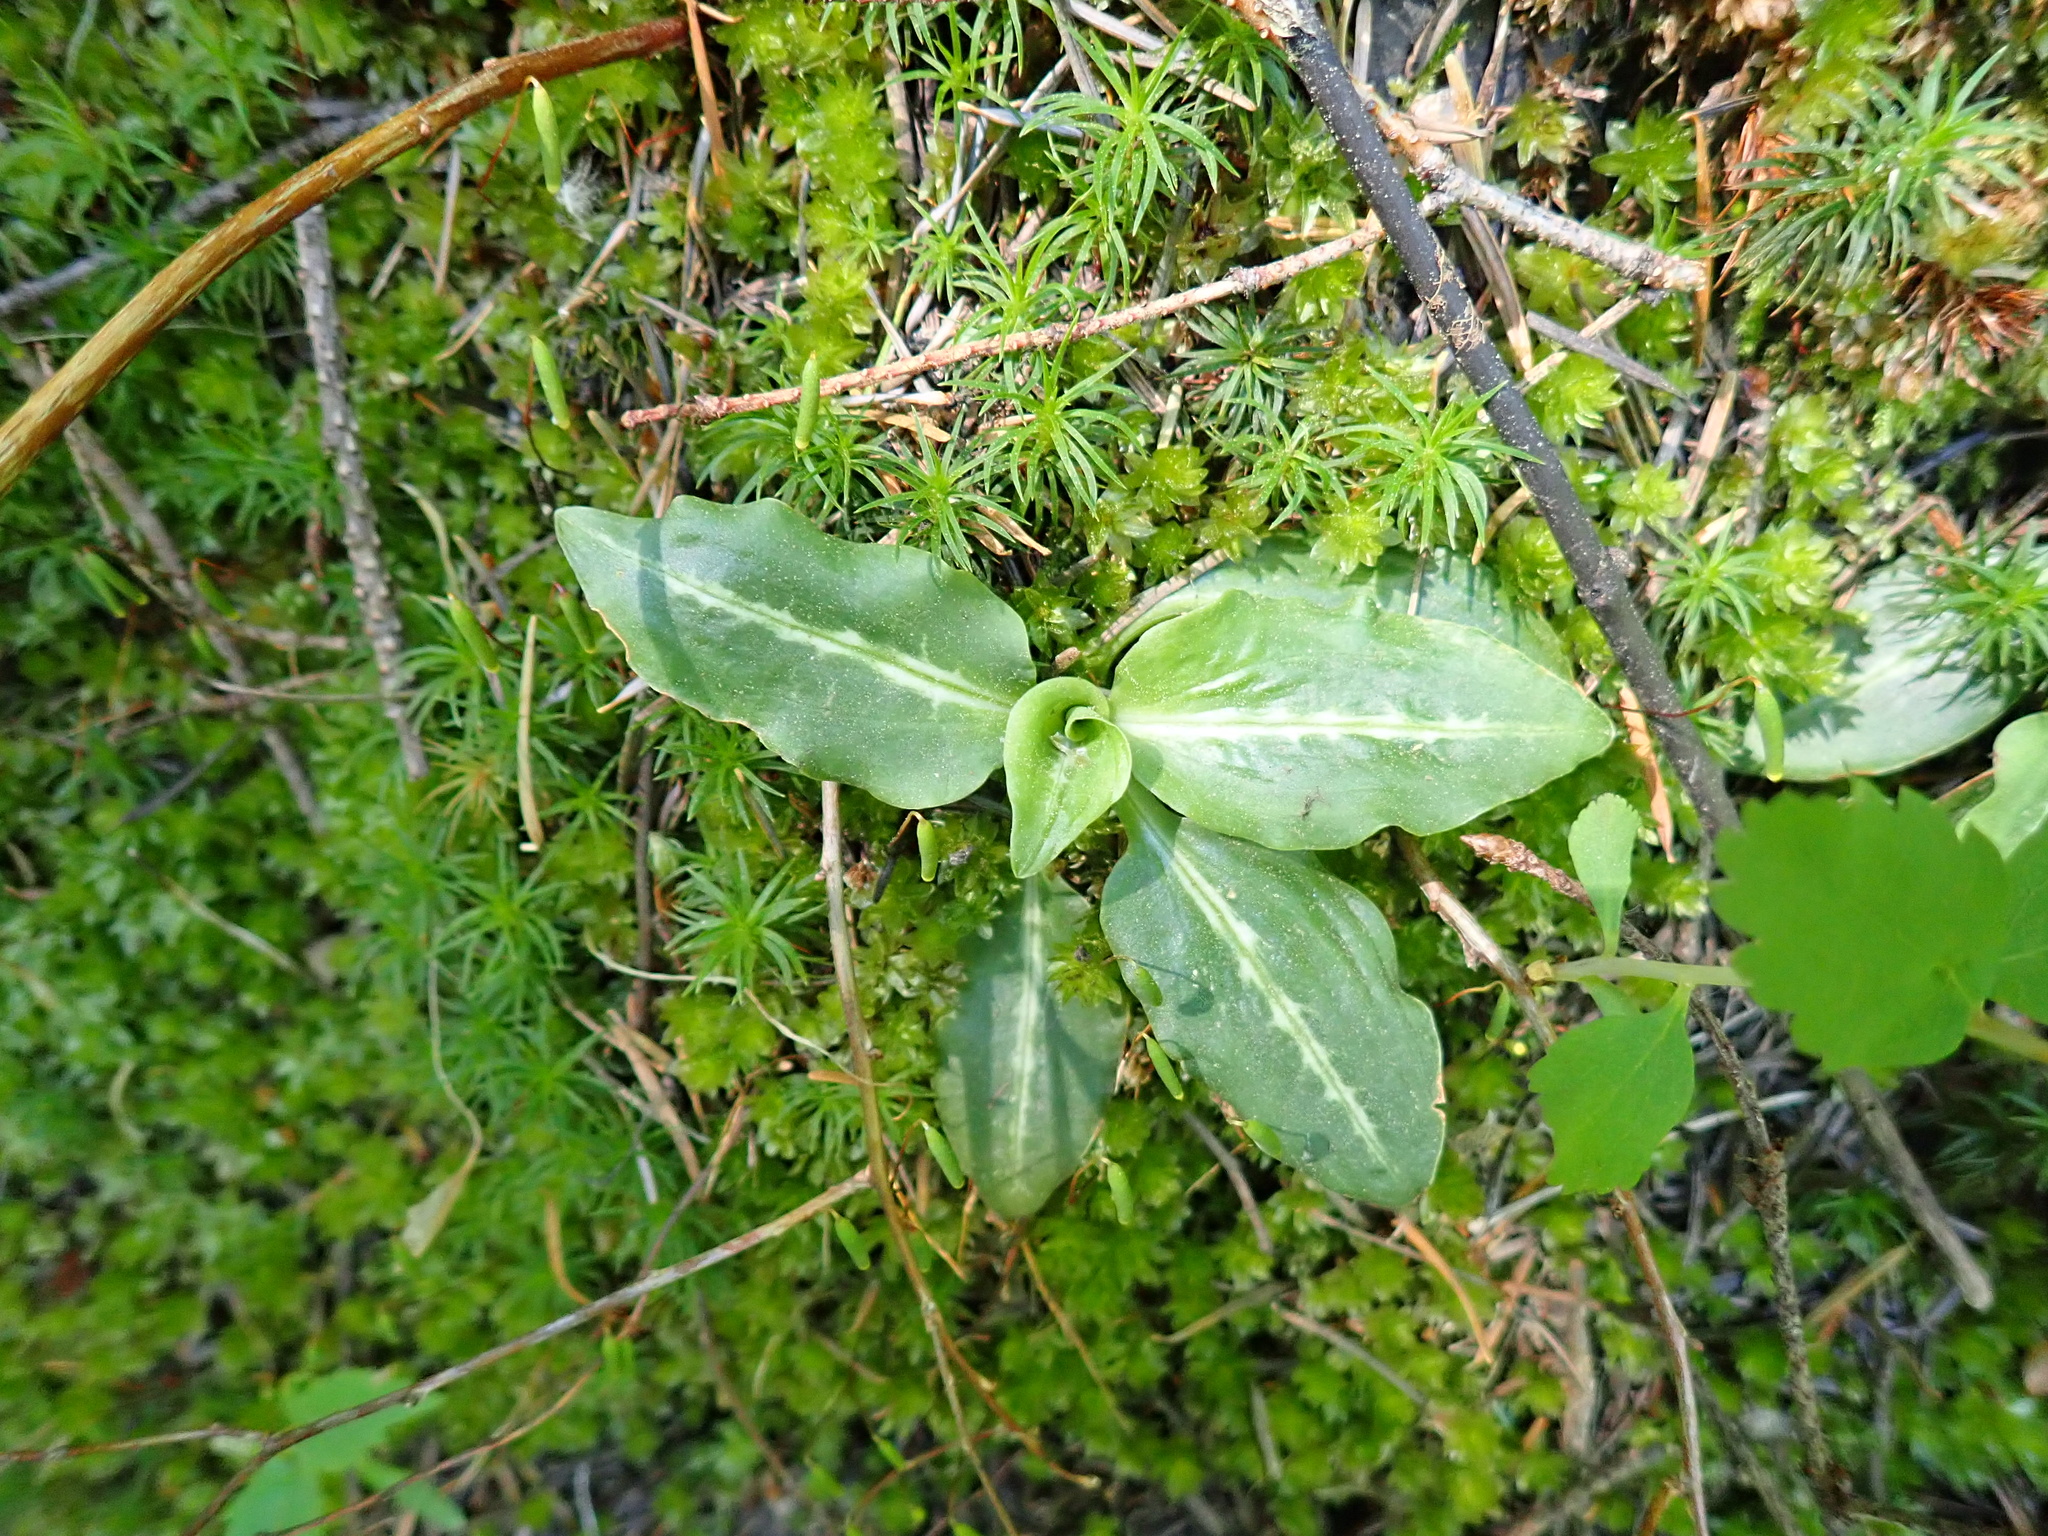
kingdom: Plantae
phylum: Tracheophyta
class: Liliopsida
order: Asparagales
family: Orchidaceae
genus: Goodyera
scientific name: Goodyera oblongifolia
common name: Giant rattlesnake-plantain
